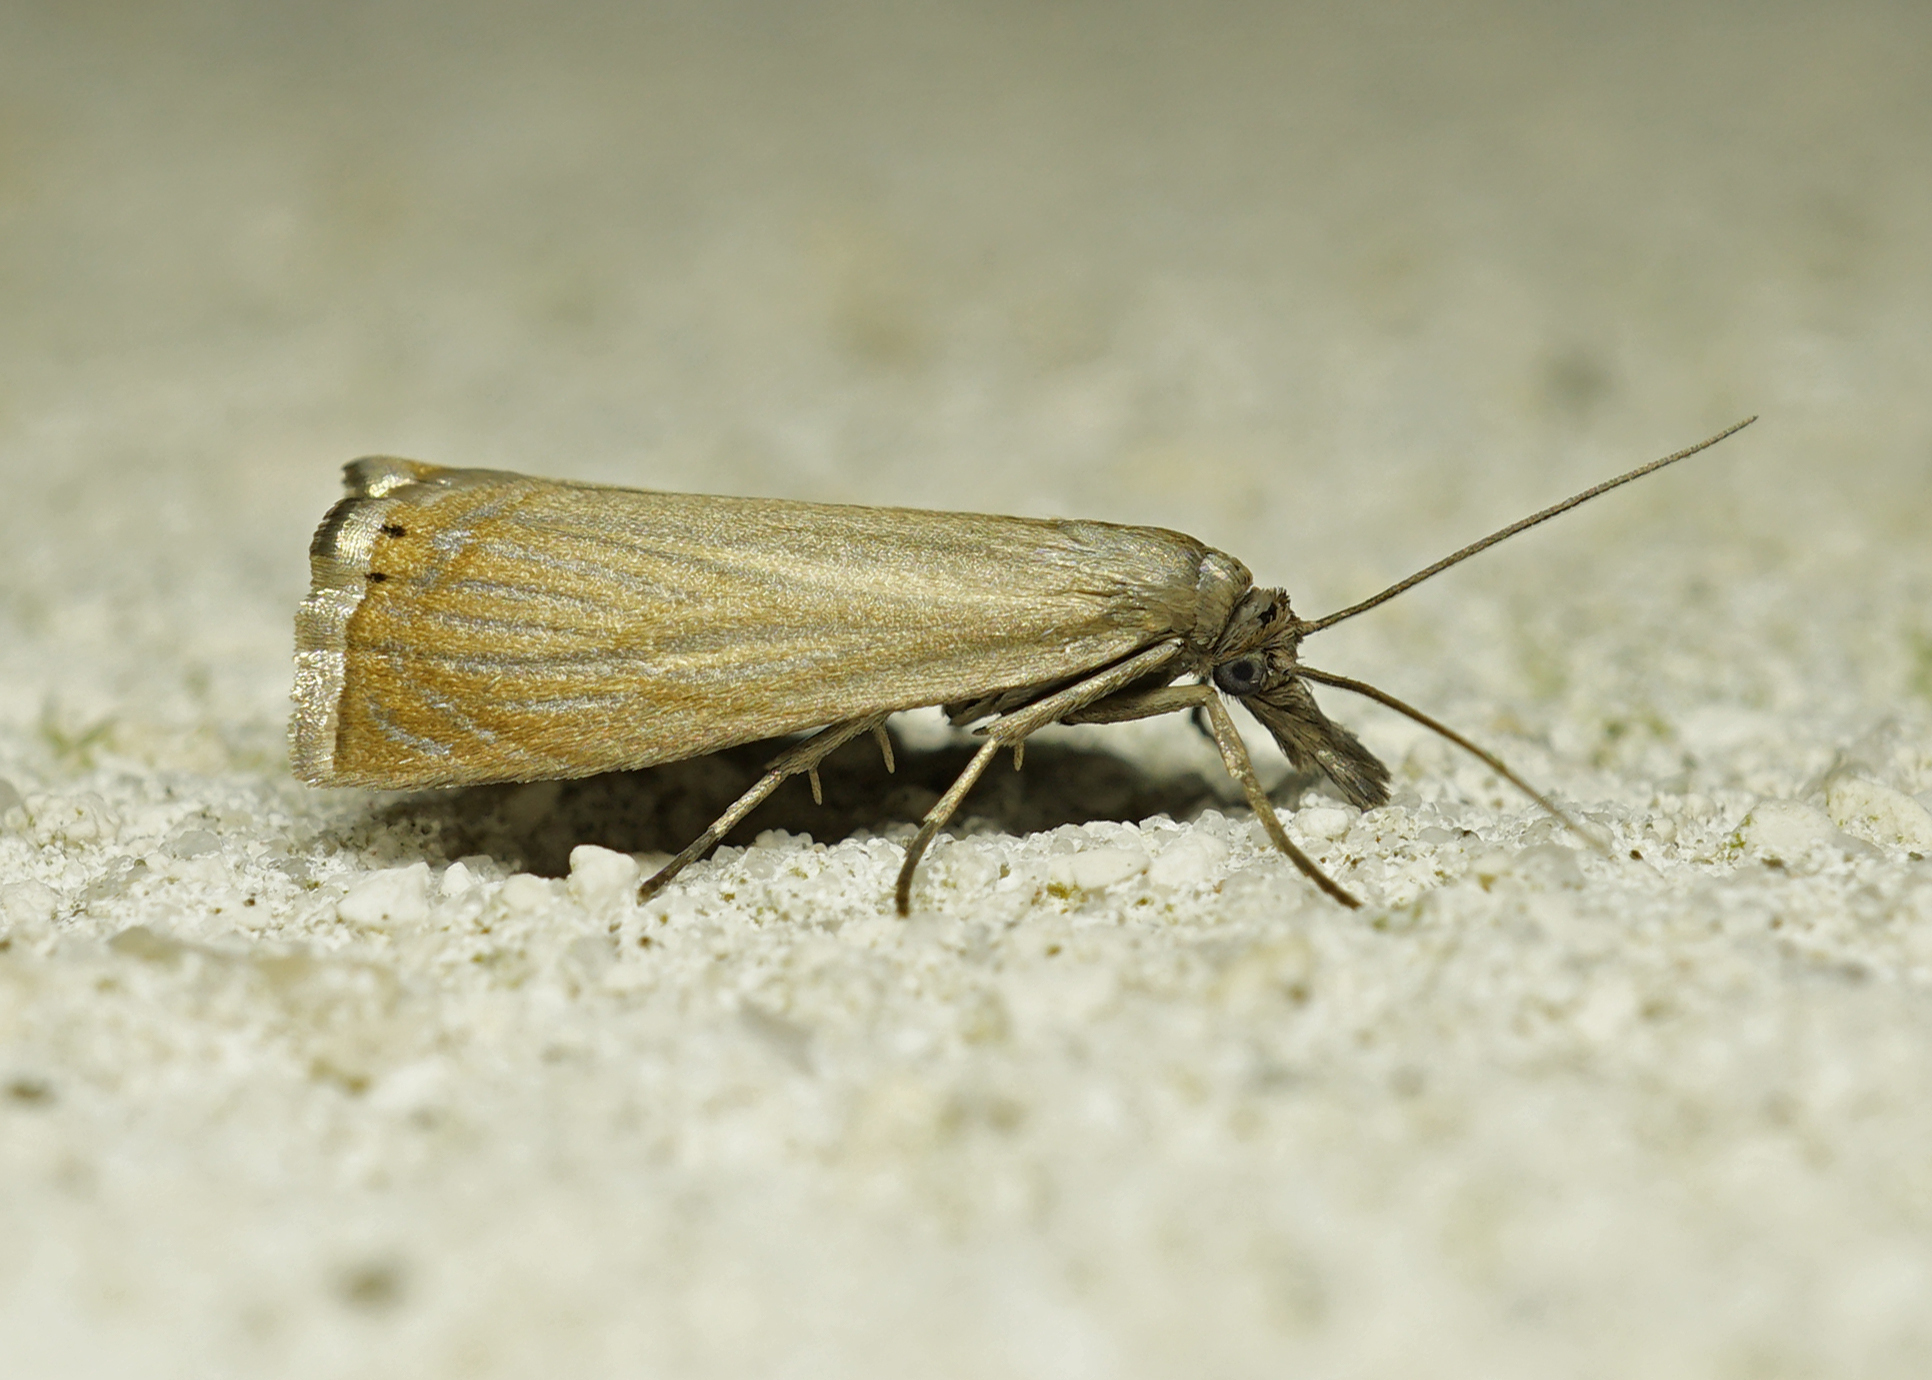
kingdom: Animalia
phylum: Arthropoda
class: Insecta
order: Lepidoptera
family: Crambidae
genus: Chrysoteuchia
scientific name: Chrysoteuchia culmella
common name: Garden grass-veneer
